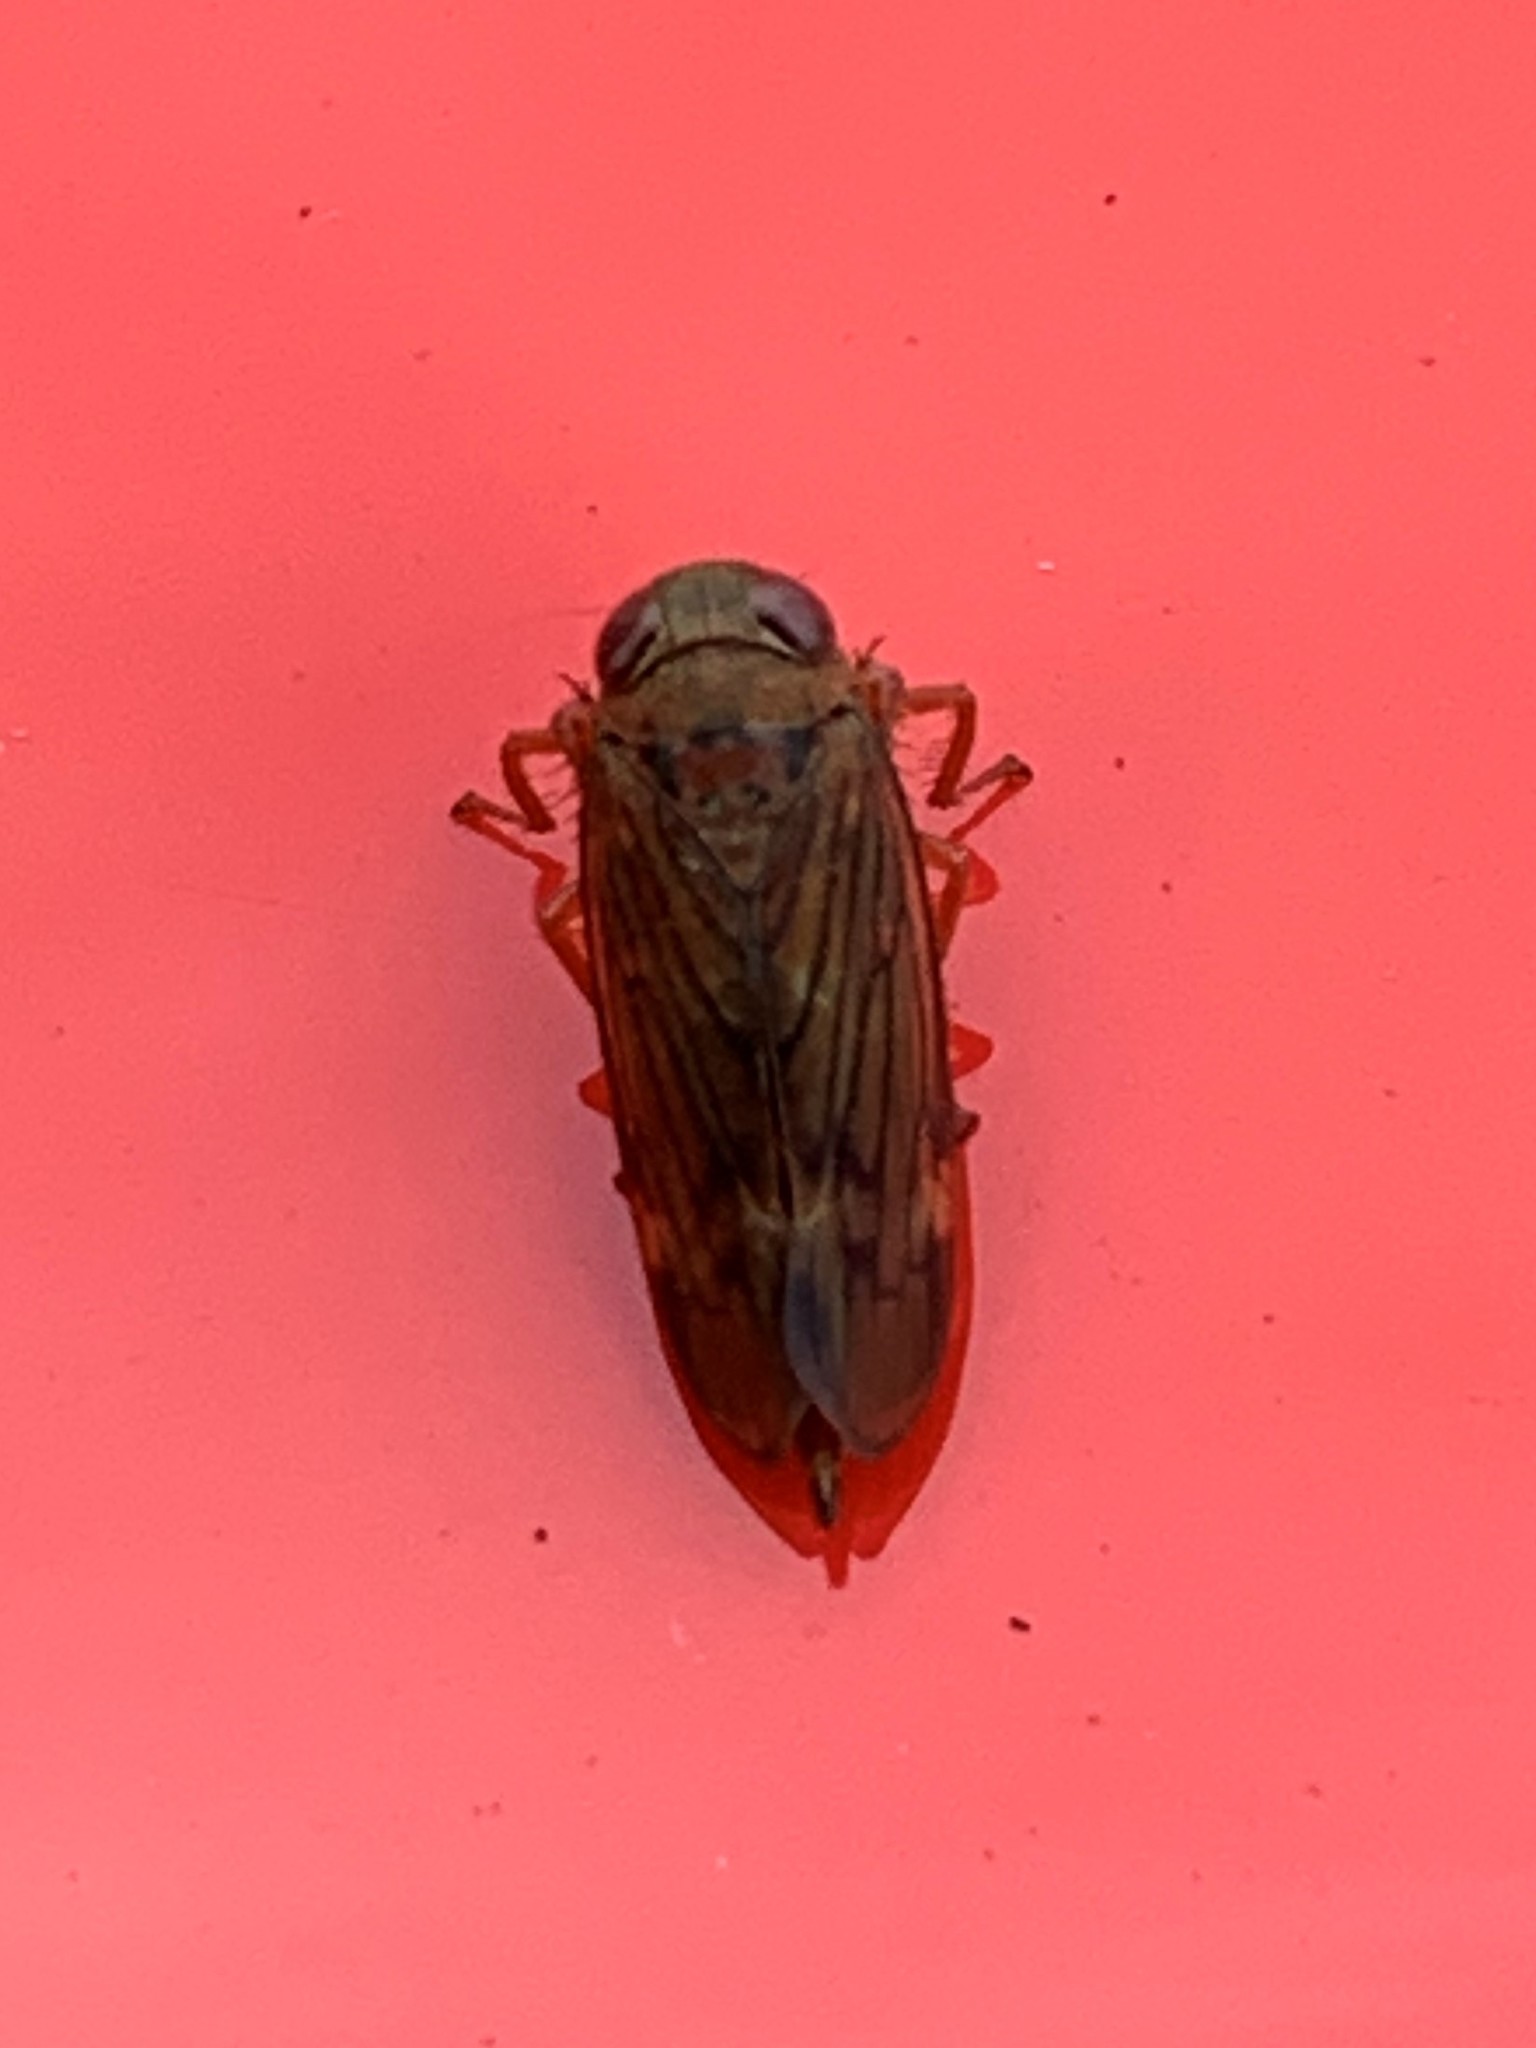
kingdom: Animalia
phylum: Arthropoda
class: Insecta
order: Hemiptera
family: Cicadellidae
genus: Jikradia
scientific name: Jikradia olitoria
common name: Coppery leafhopper
